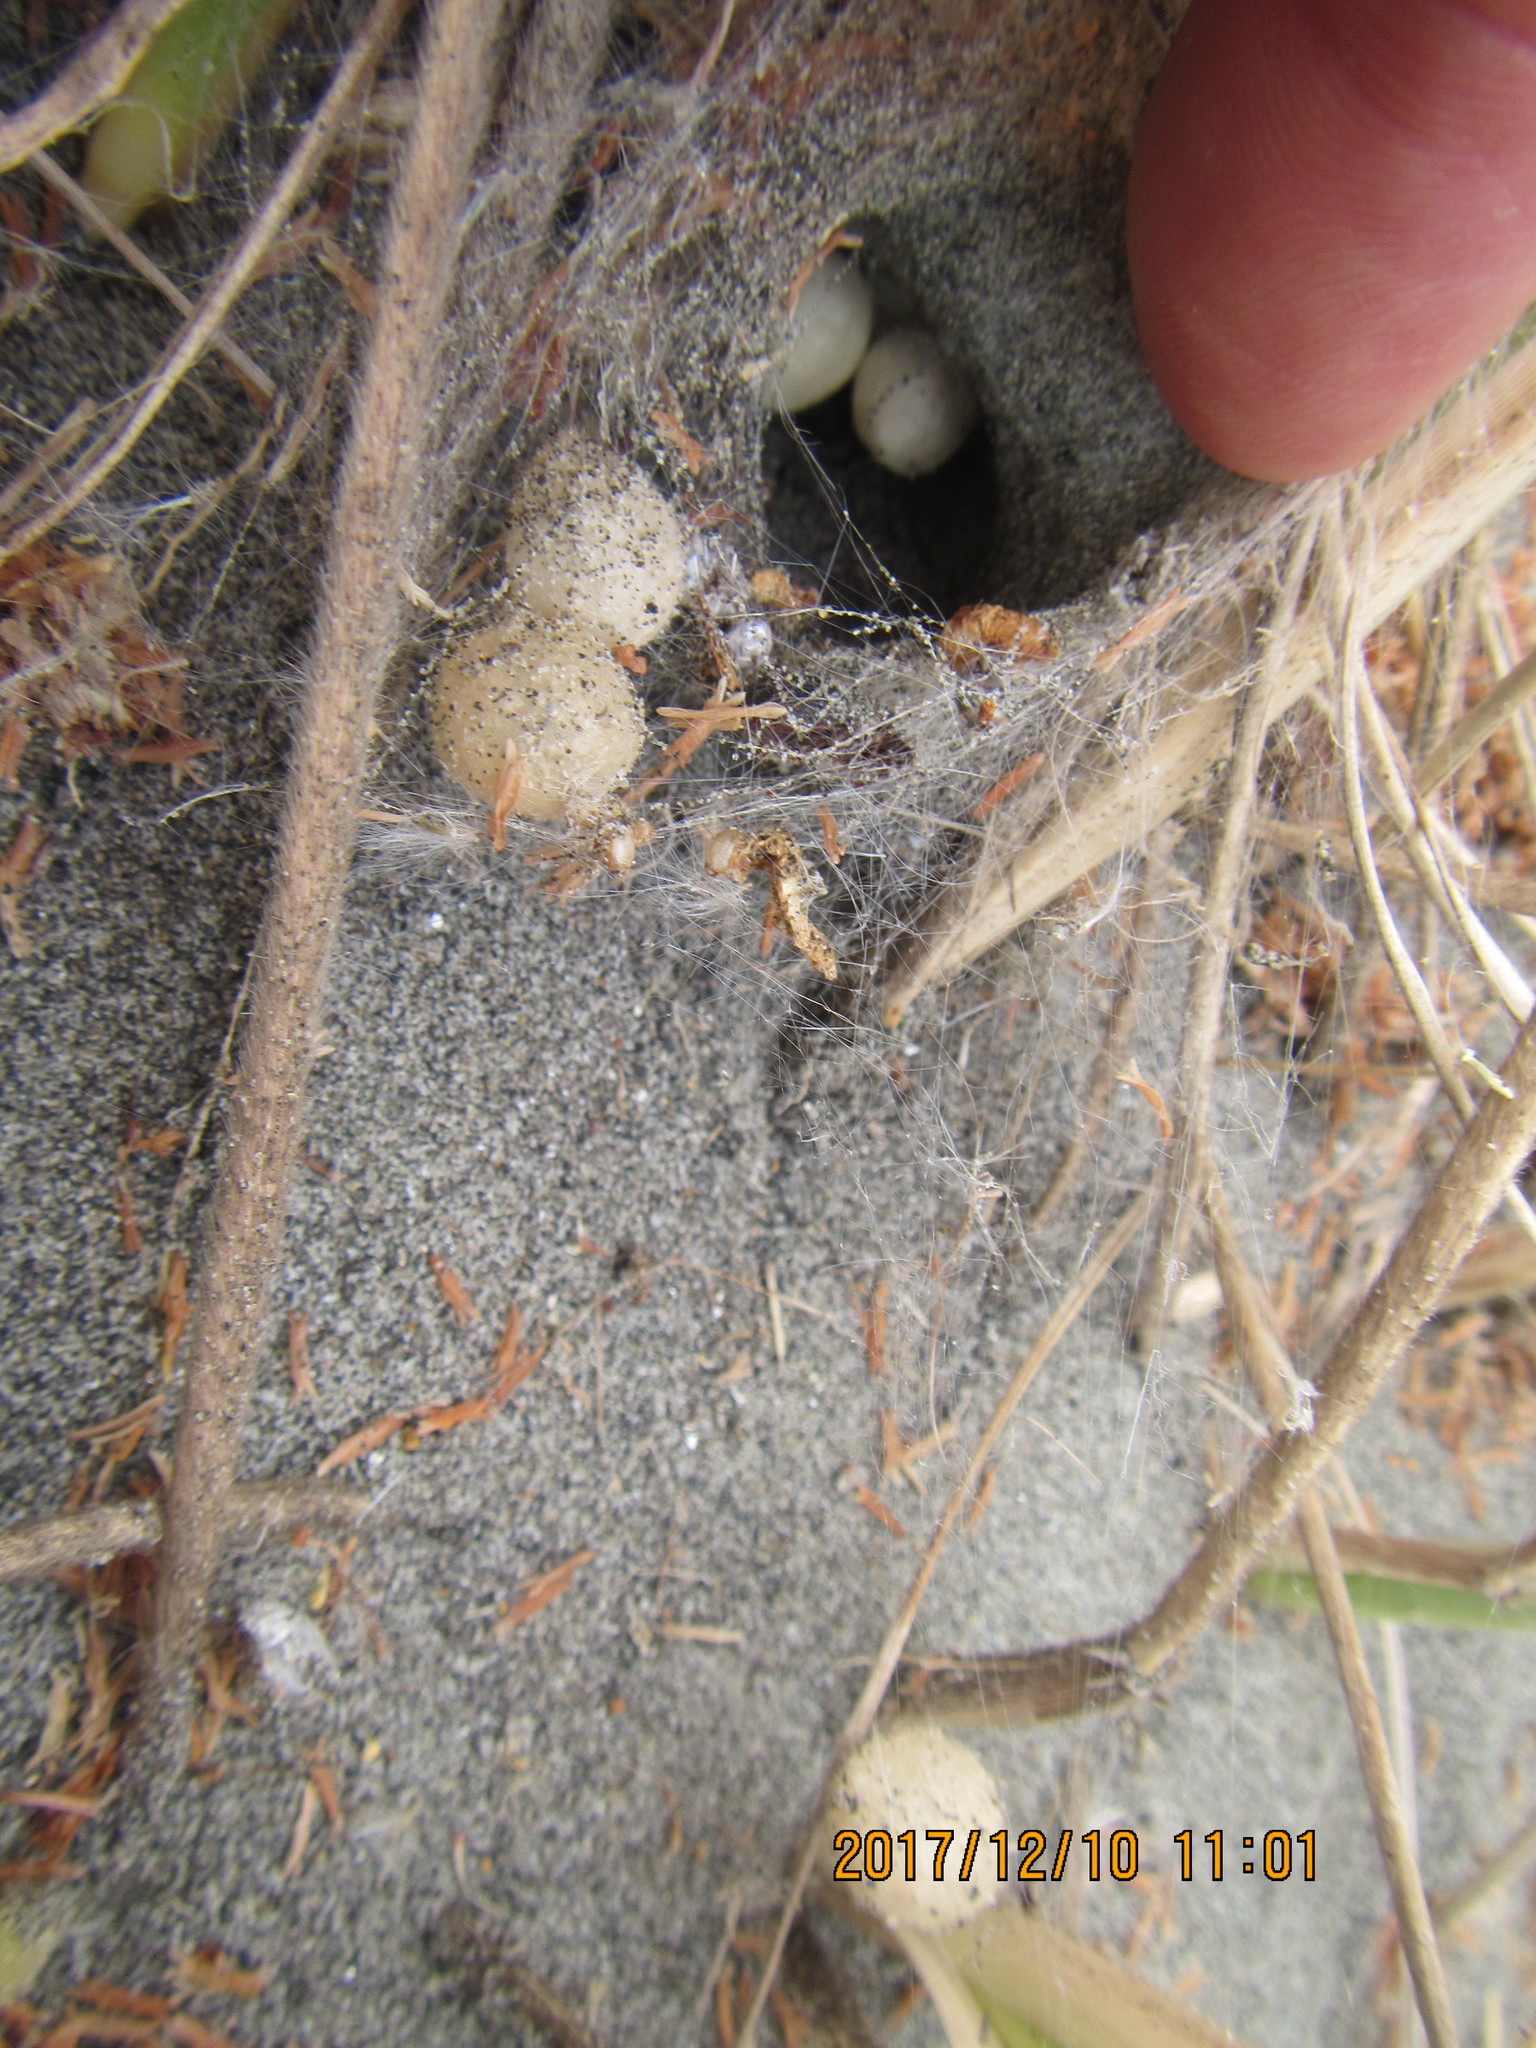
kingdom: Animalia
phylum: Arthropoda
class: Arachnida
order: Araneae
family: Theridiidae
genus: Latrodectus
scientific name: Latrodectus katipo
